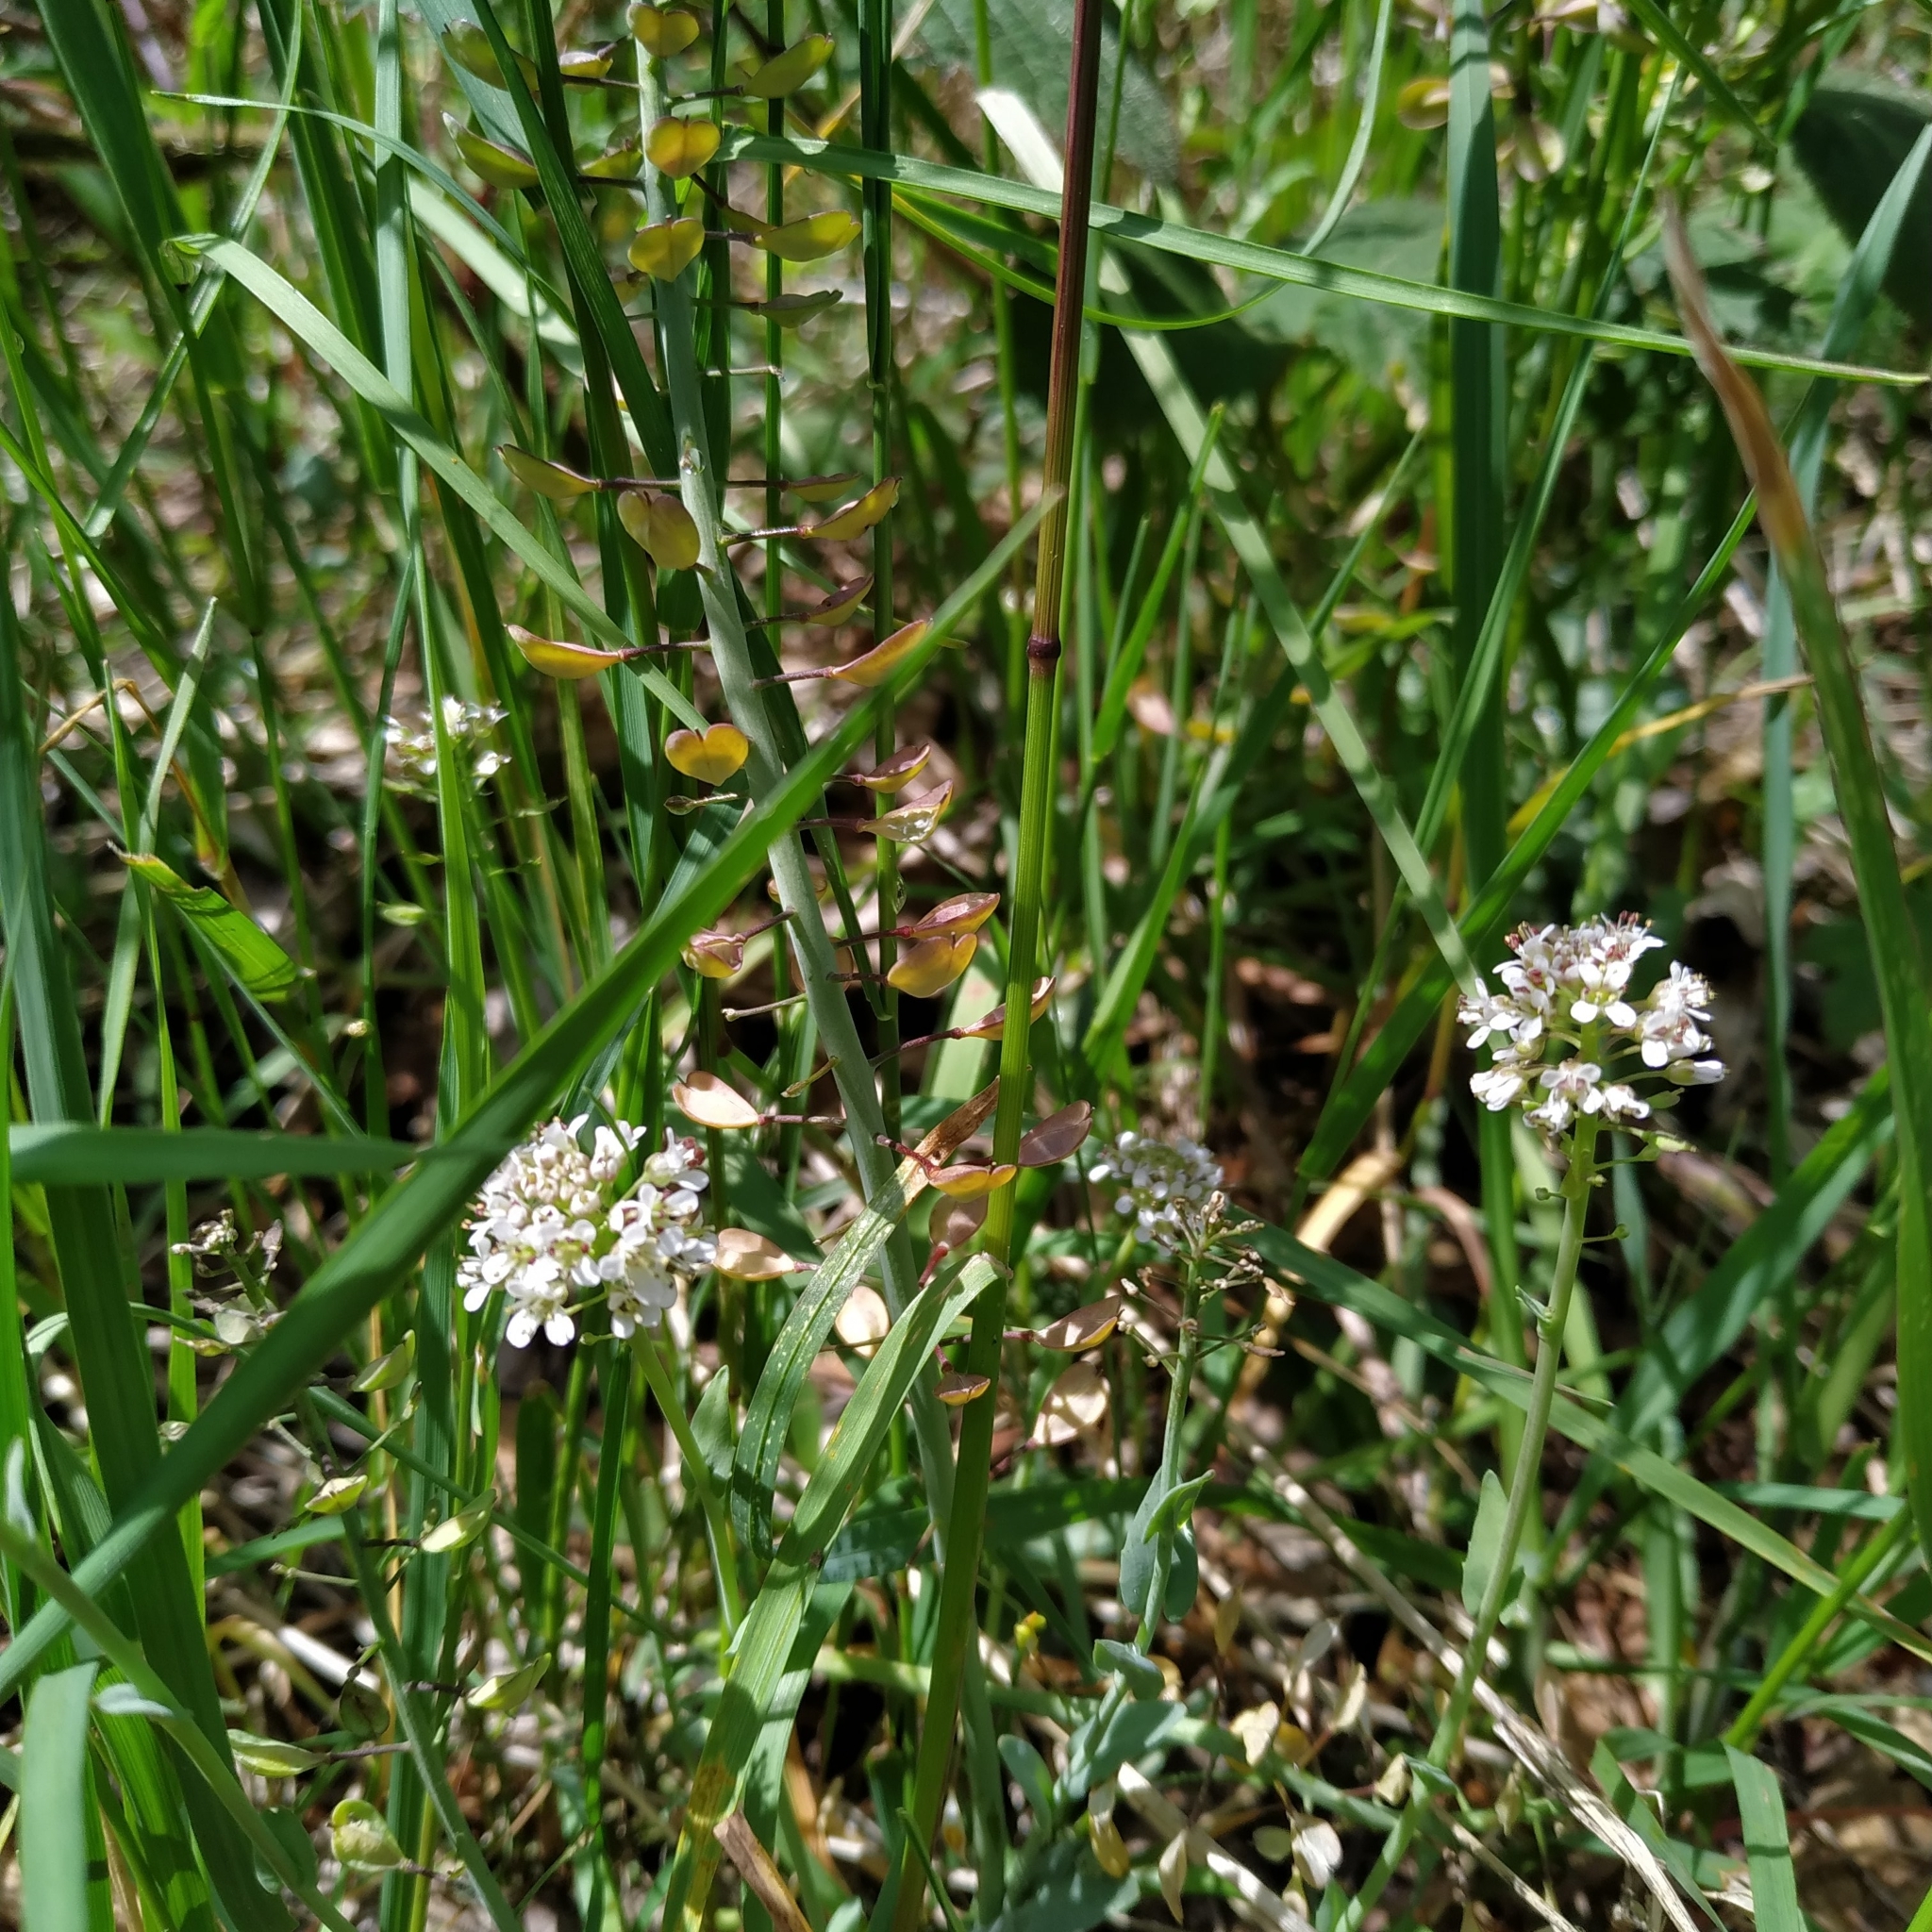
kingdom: Plantae
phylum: Tracheophyta
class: Magnoliopsida
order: Brassicales
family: Brassicaceae
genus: Noccaea
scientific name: Noccaea caerulescens
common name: Alpine pennycress
